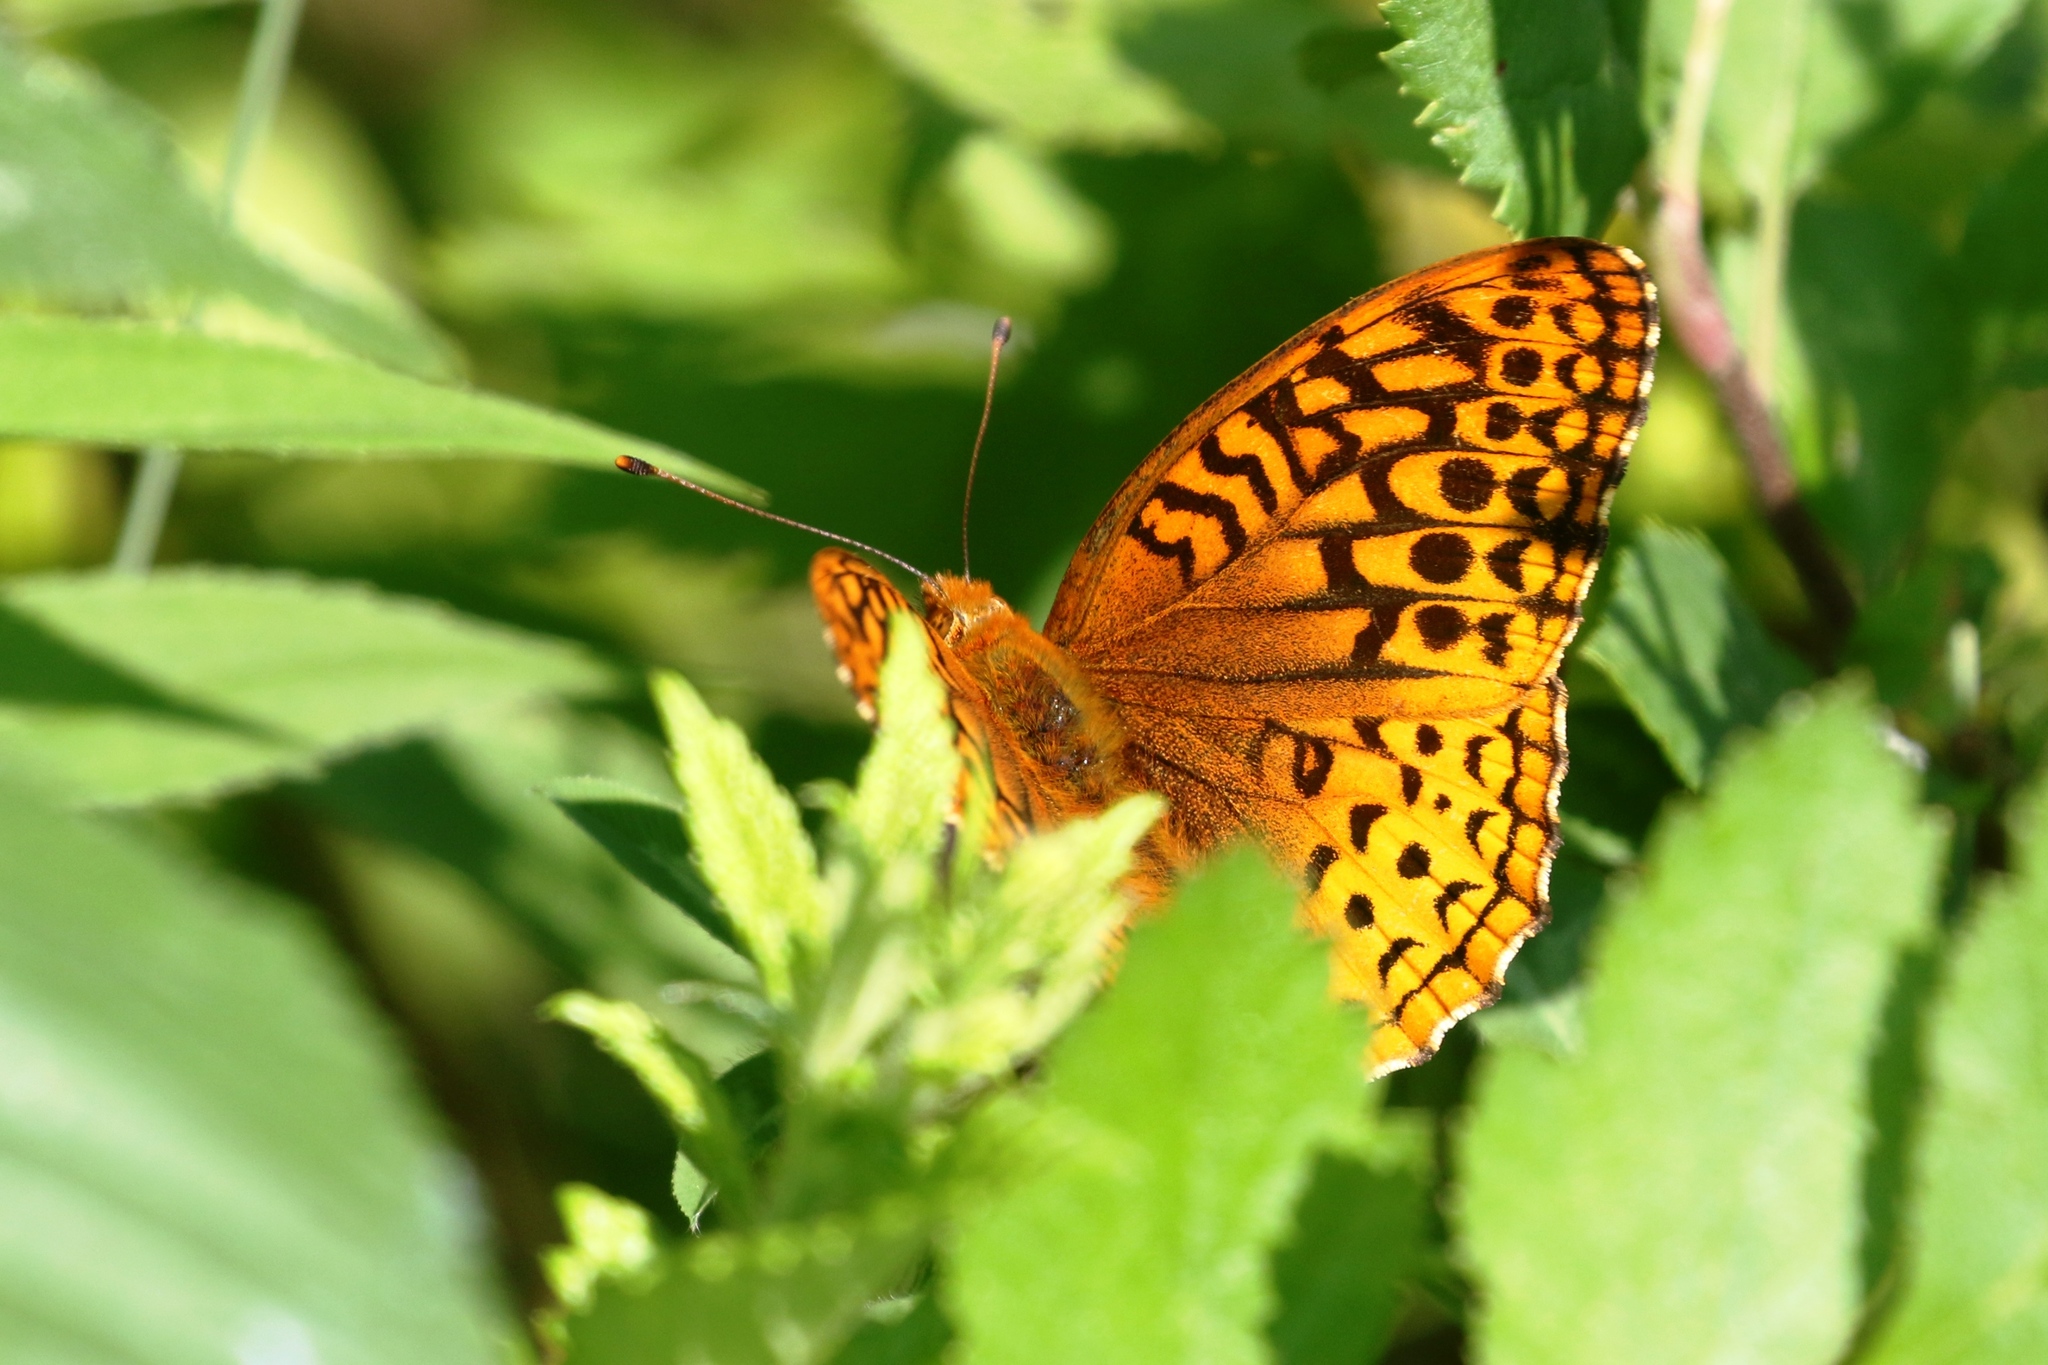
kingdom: Animalia
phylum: Arthropoda
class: Insecta
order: Lepidoptera
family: Nymphalidae
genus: Speyeria
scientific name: Speyeria cybele
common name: Great spangled fritillary
